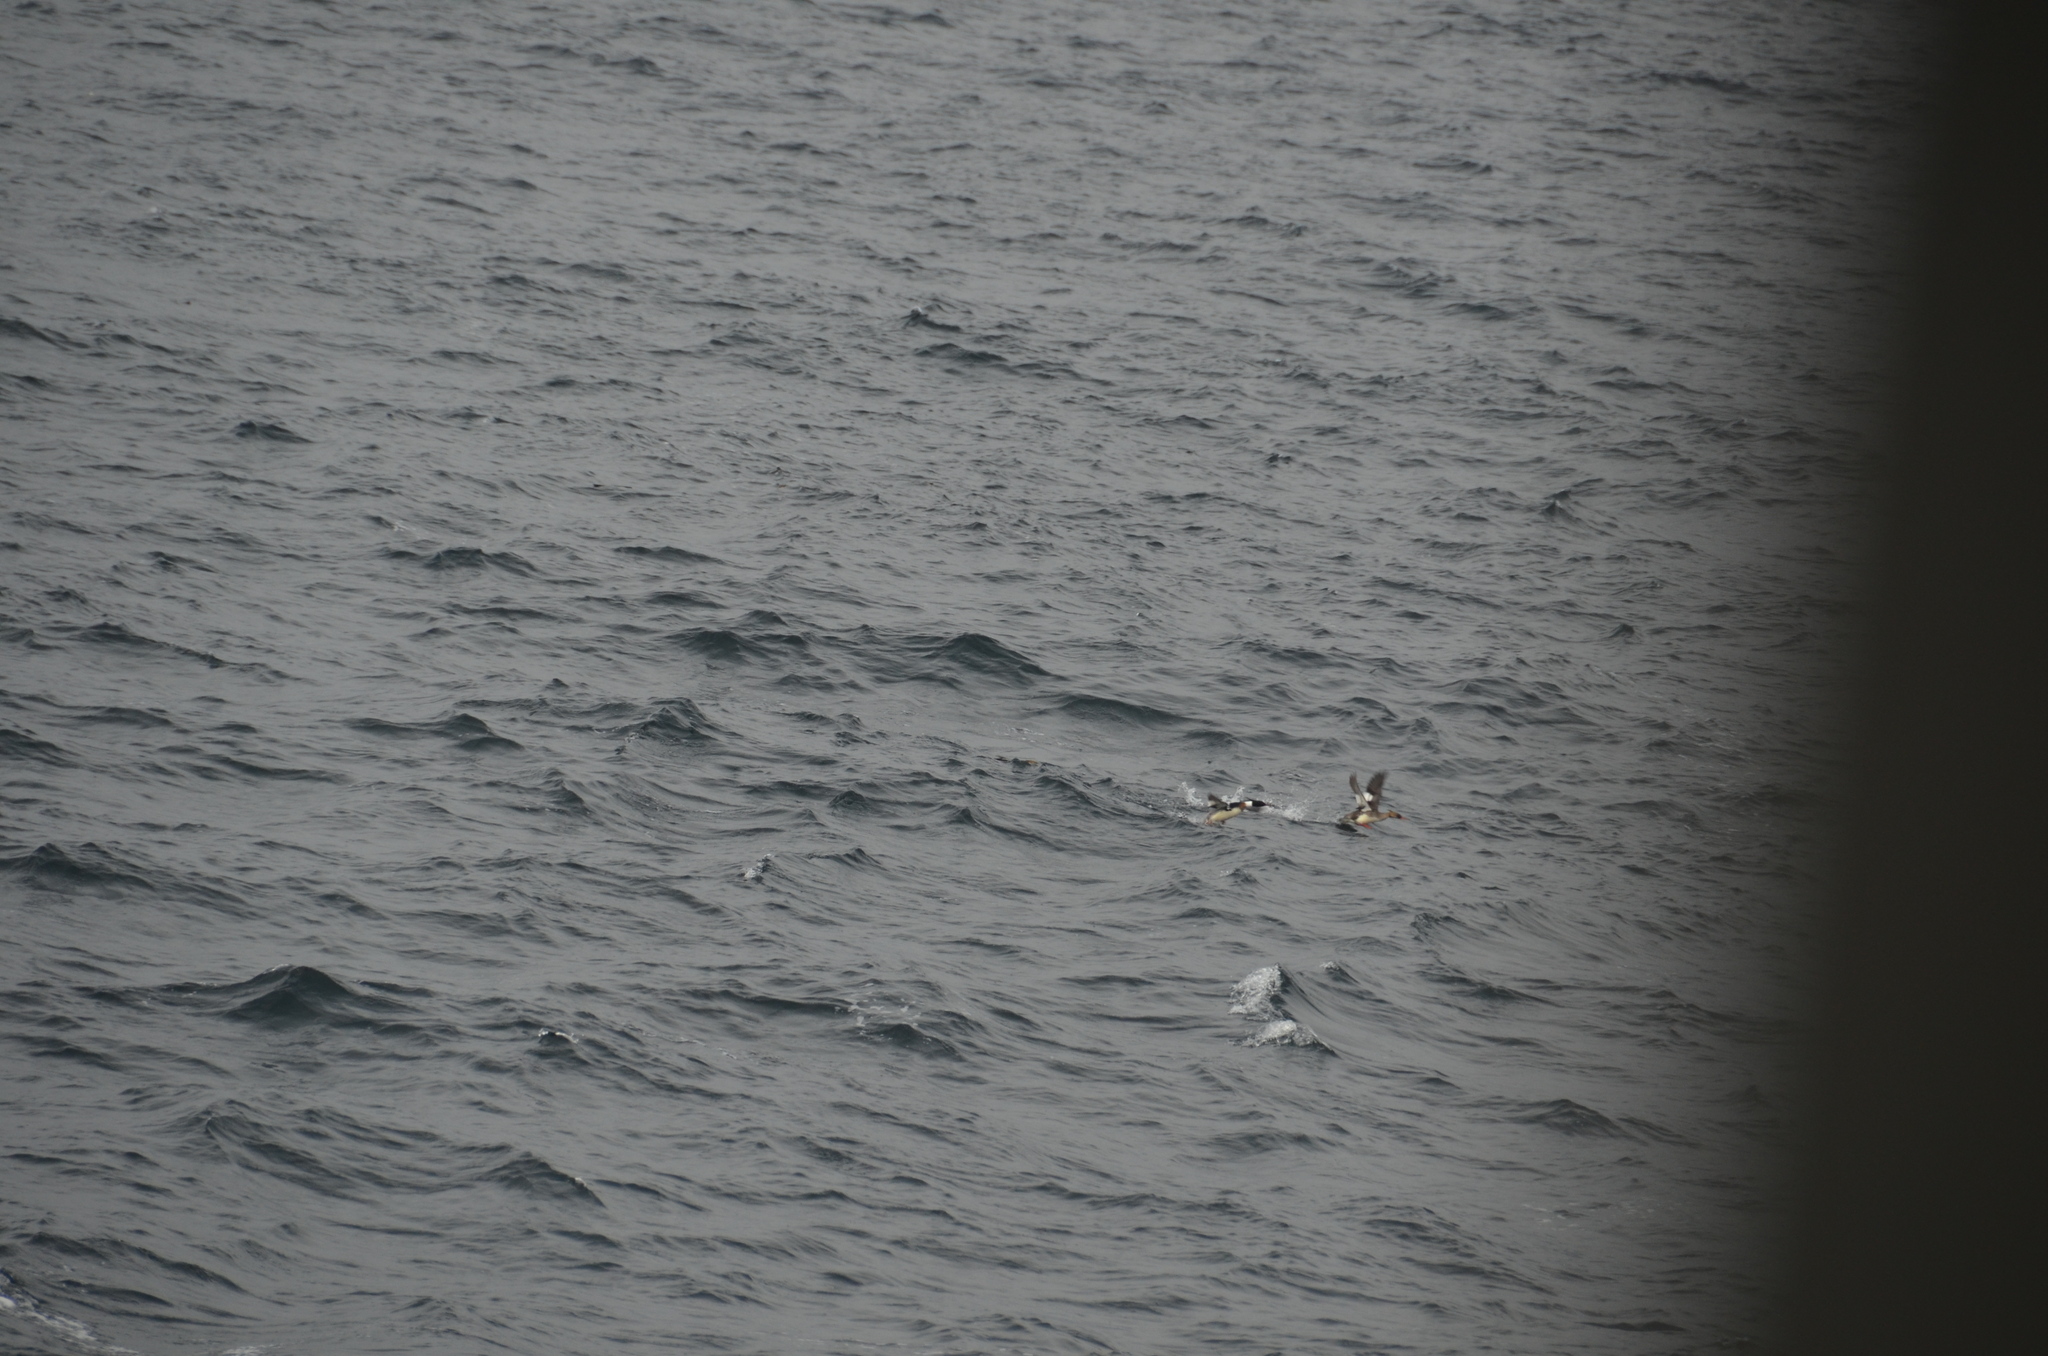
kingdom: Animalia
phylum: Chordata
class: Aves
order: Anseriformes
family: Anatidae
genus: Mergus
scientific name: Mergus serrator
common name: Red-breasted merganser
